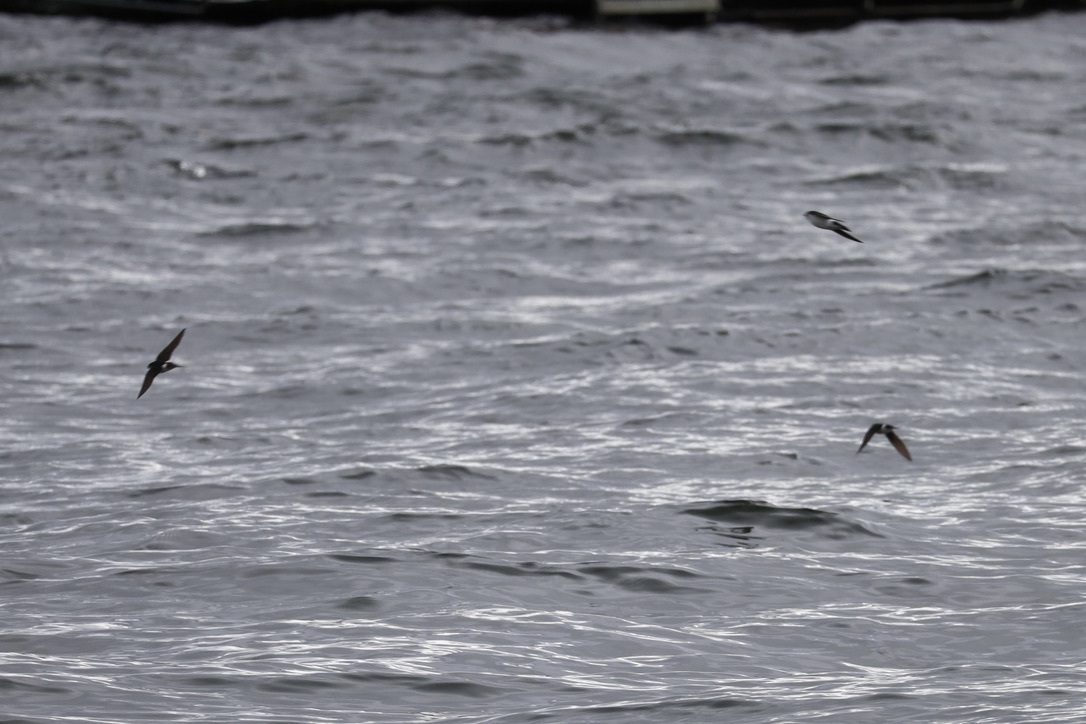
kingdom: Animalia
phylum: Chordata
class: Aves
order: Passeriformes
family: Hirundinidae
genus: Tachycineta
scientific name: Tachycineta thalassina
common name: Violet-green swallow
